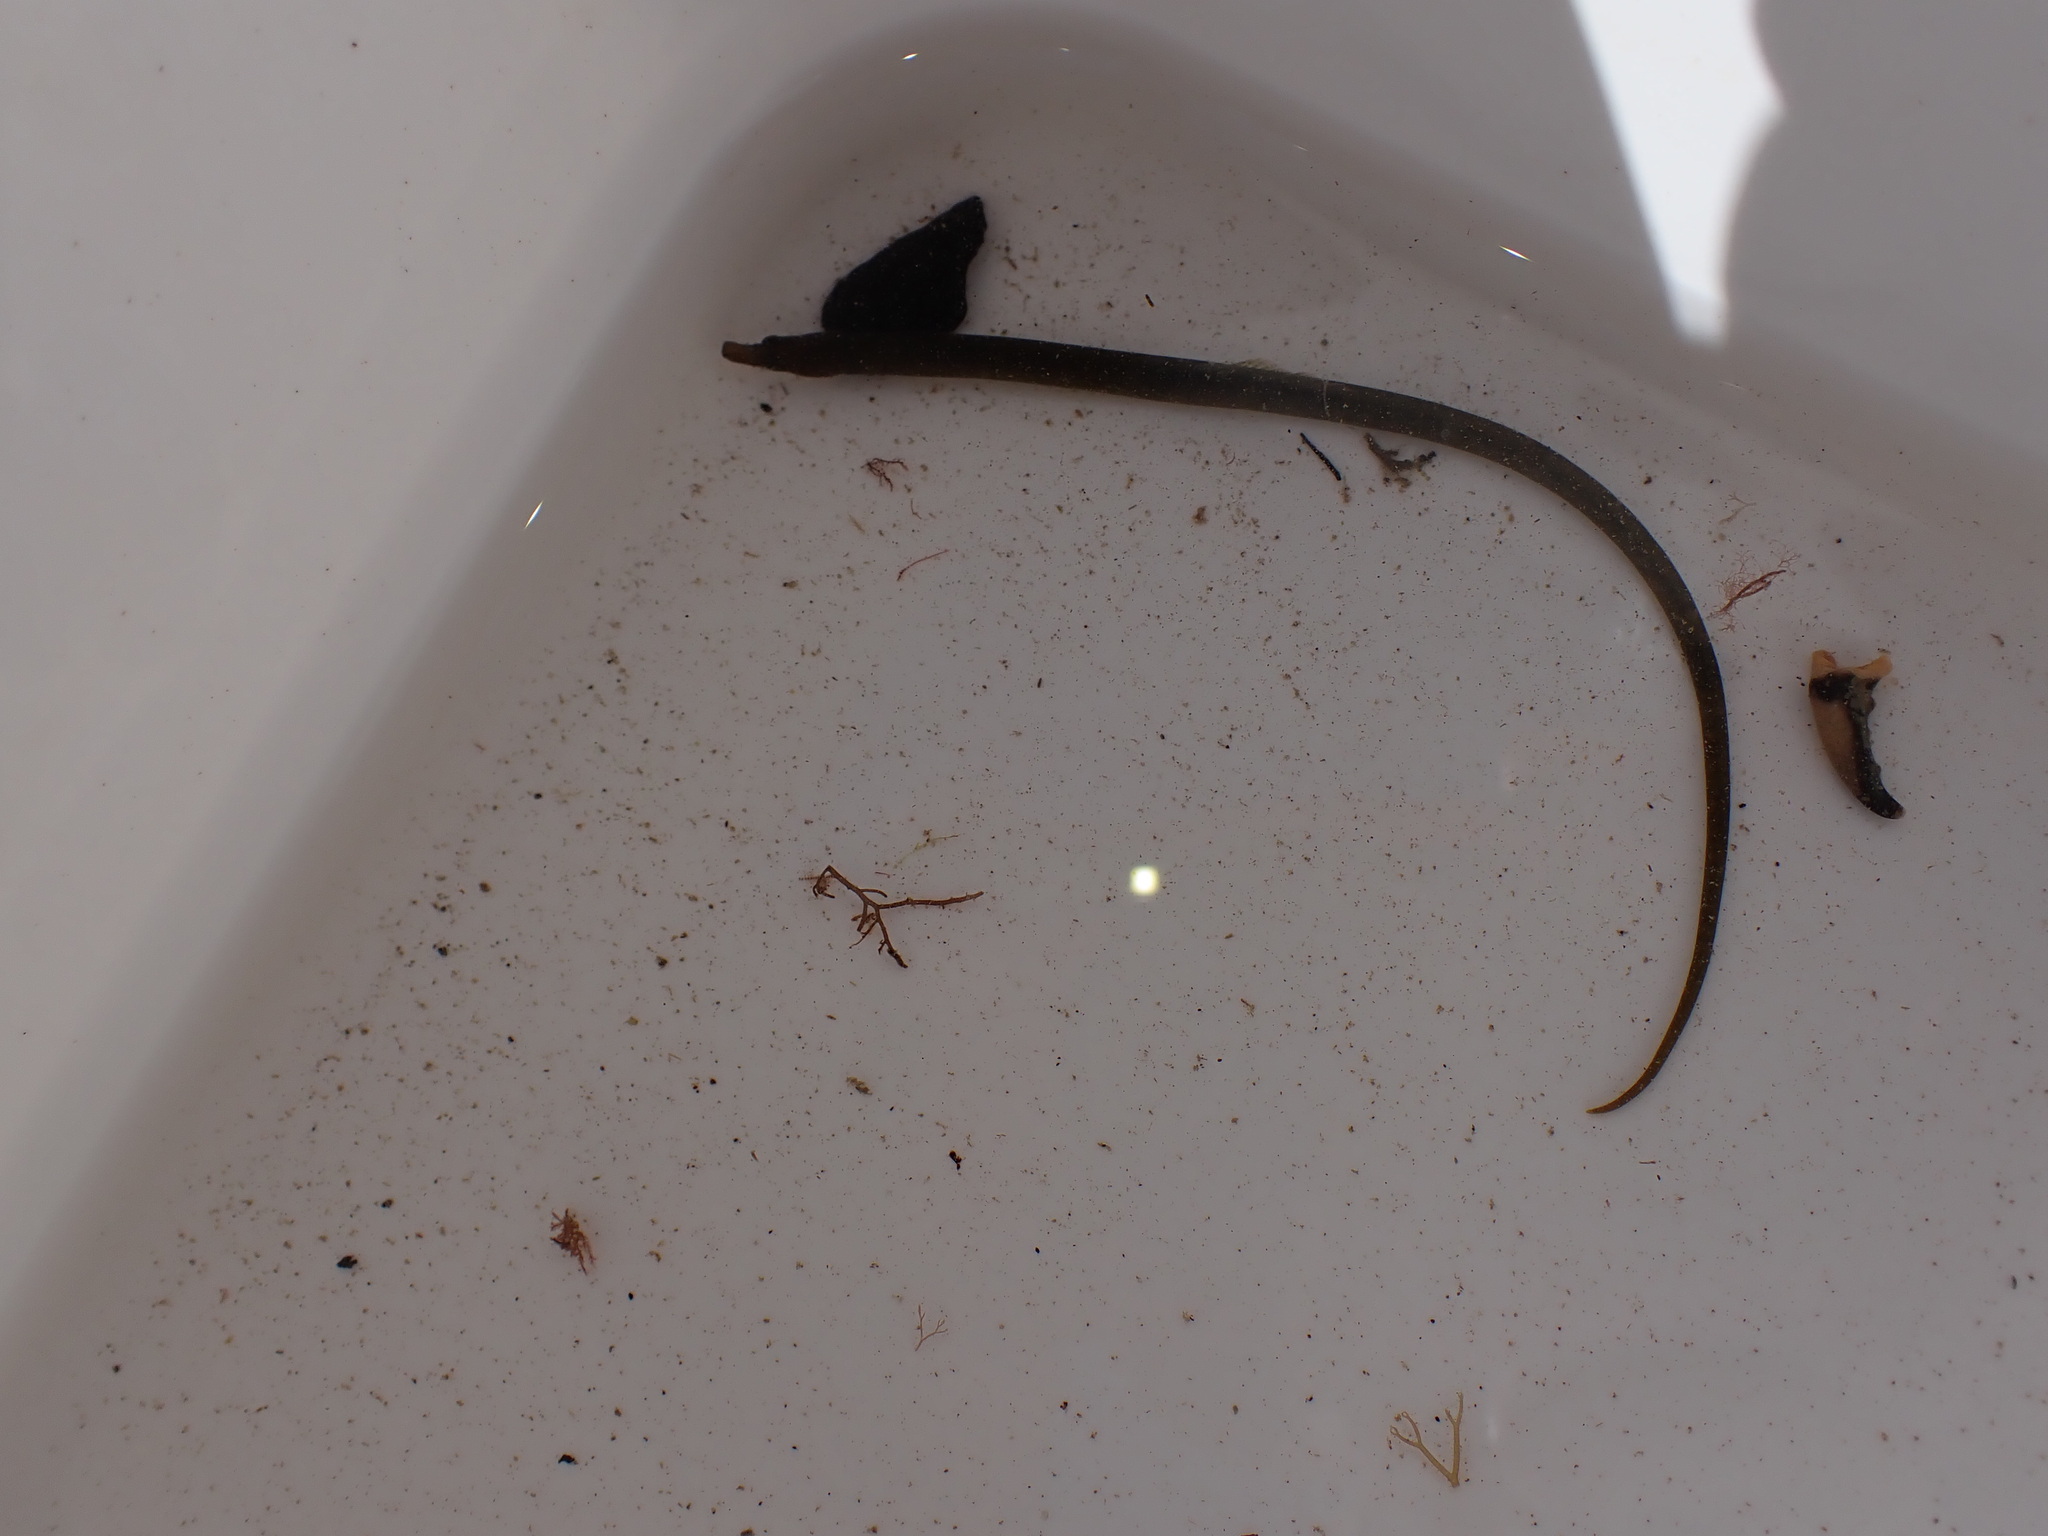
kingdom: Animalia
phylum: Chordata
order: Syngnathiformes
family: Syngnathidae
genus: Nerophis
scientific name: Nerophis lumbriciformis
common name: Worm pipefish
